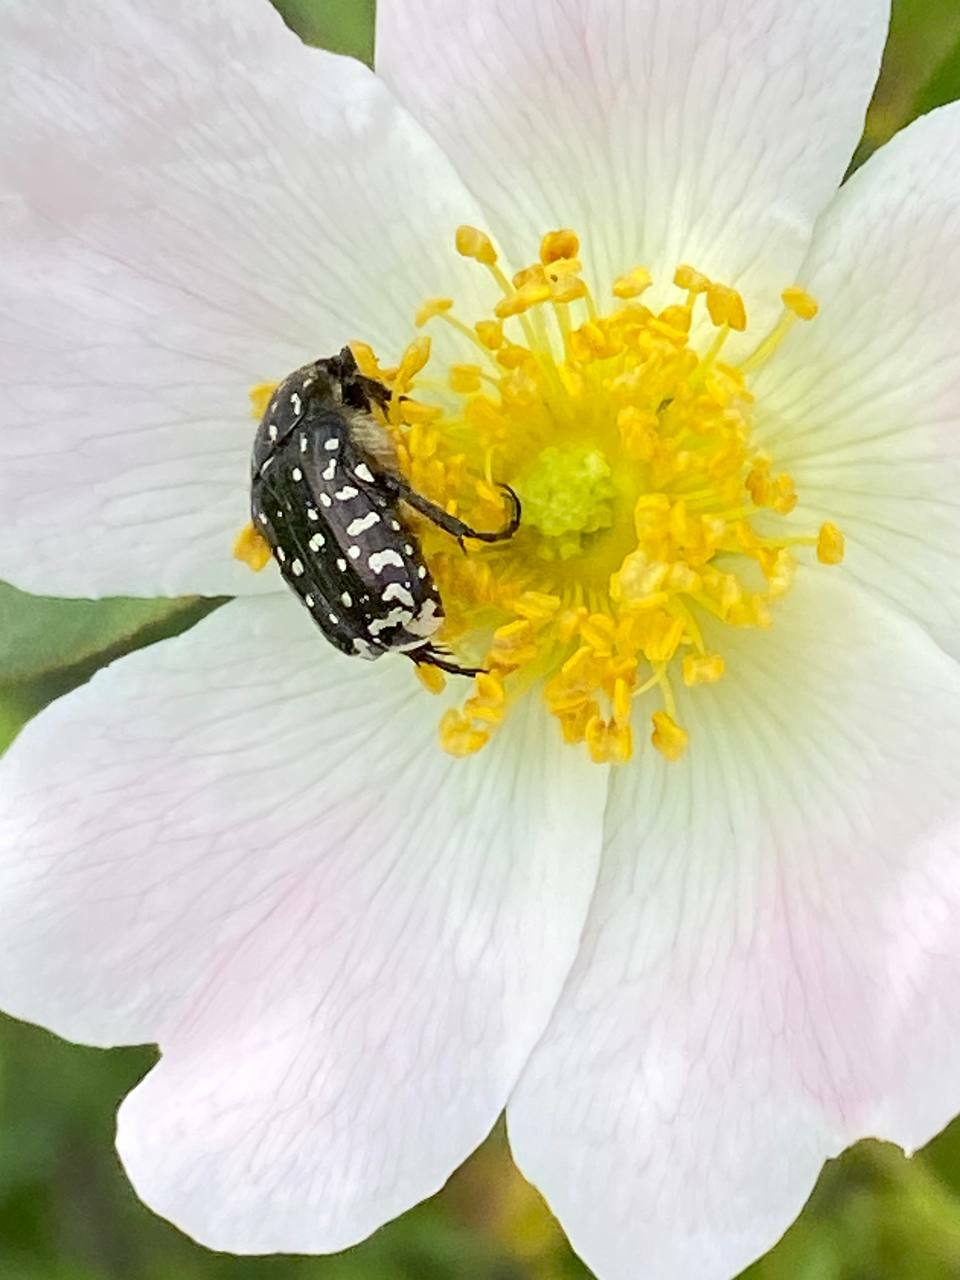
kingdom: Animalia
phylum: Arthropoda
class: Insecta
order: Coleoptera
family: Scarabaeidae
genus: Oxythyrea
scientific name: Oxythyrea funesta
